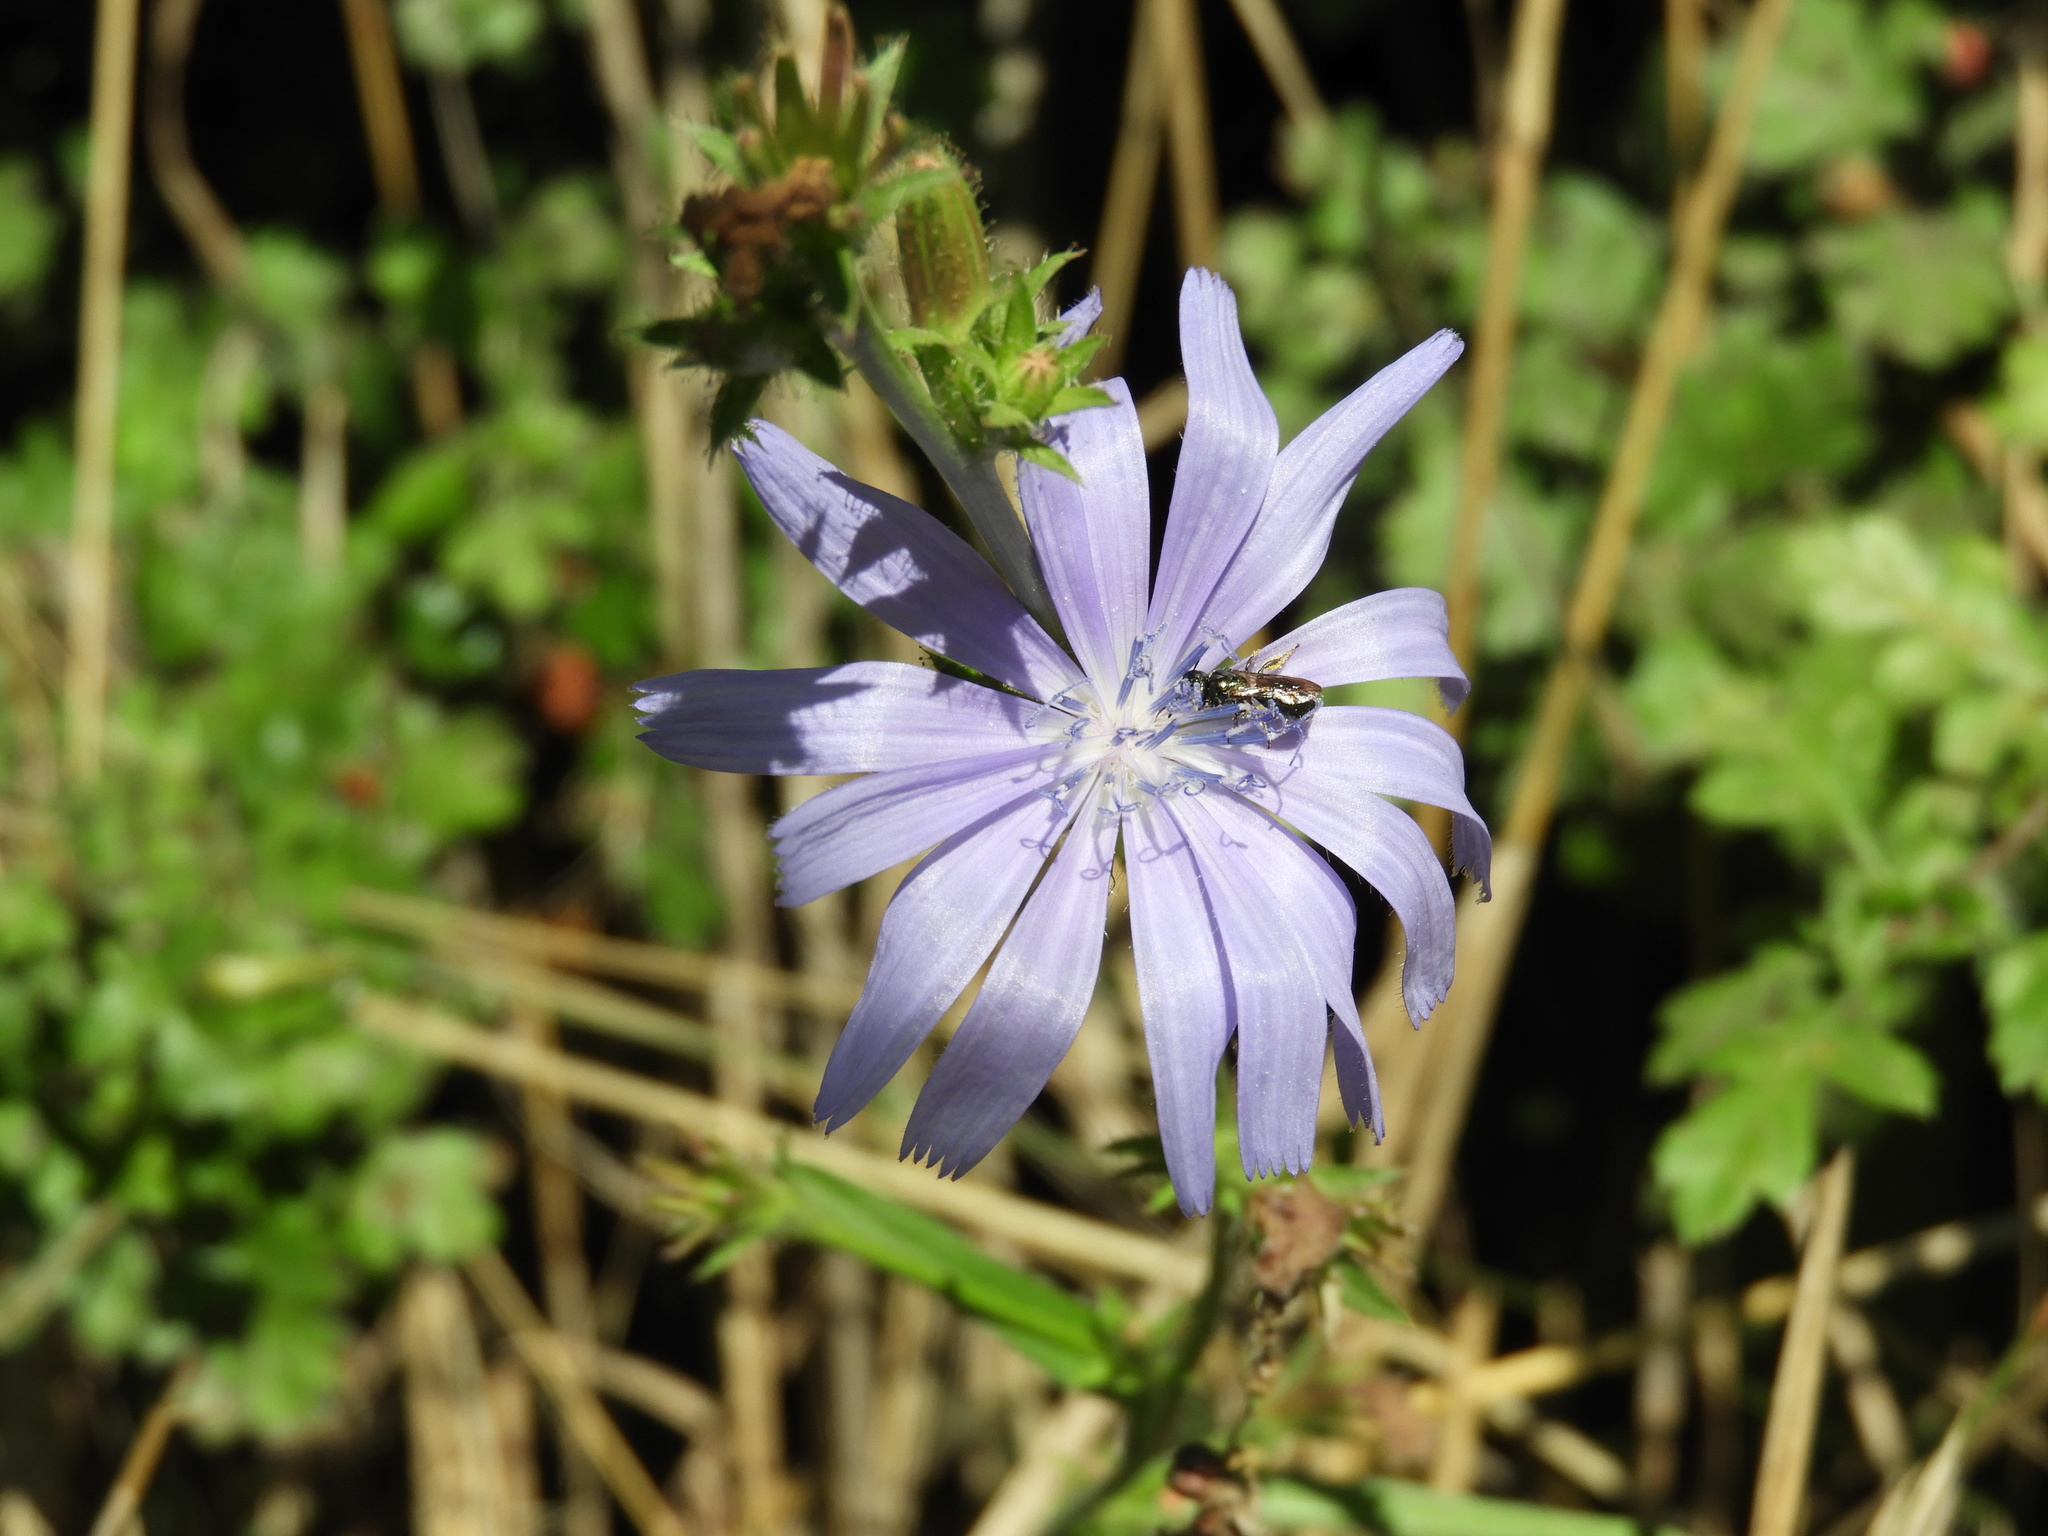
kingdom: Plantae
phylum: Tracheophyta
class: Magnoliopsida
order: Asterales
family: Asteraceae
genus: Cichorium
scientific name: Cichorium intybus
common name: Chicory
